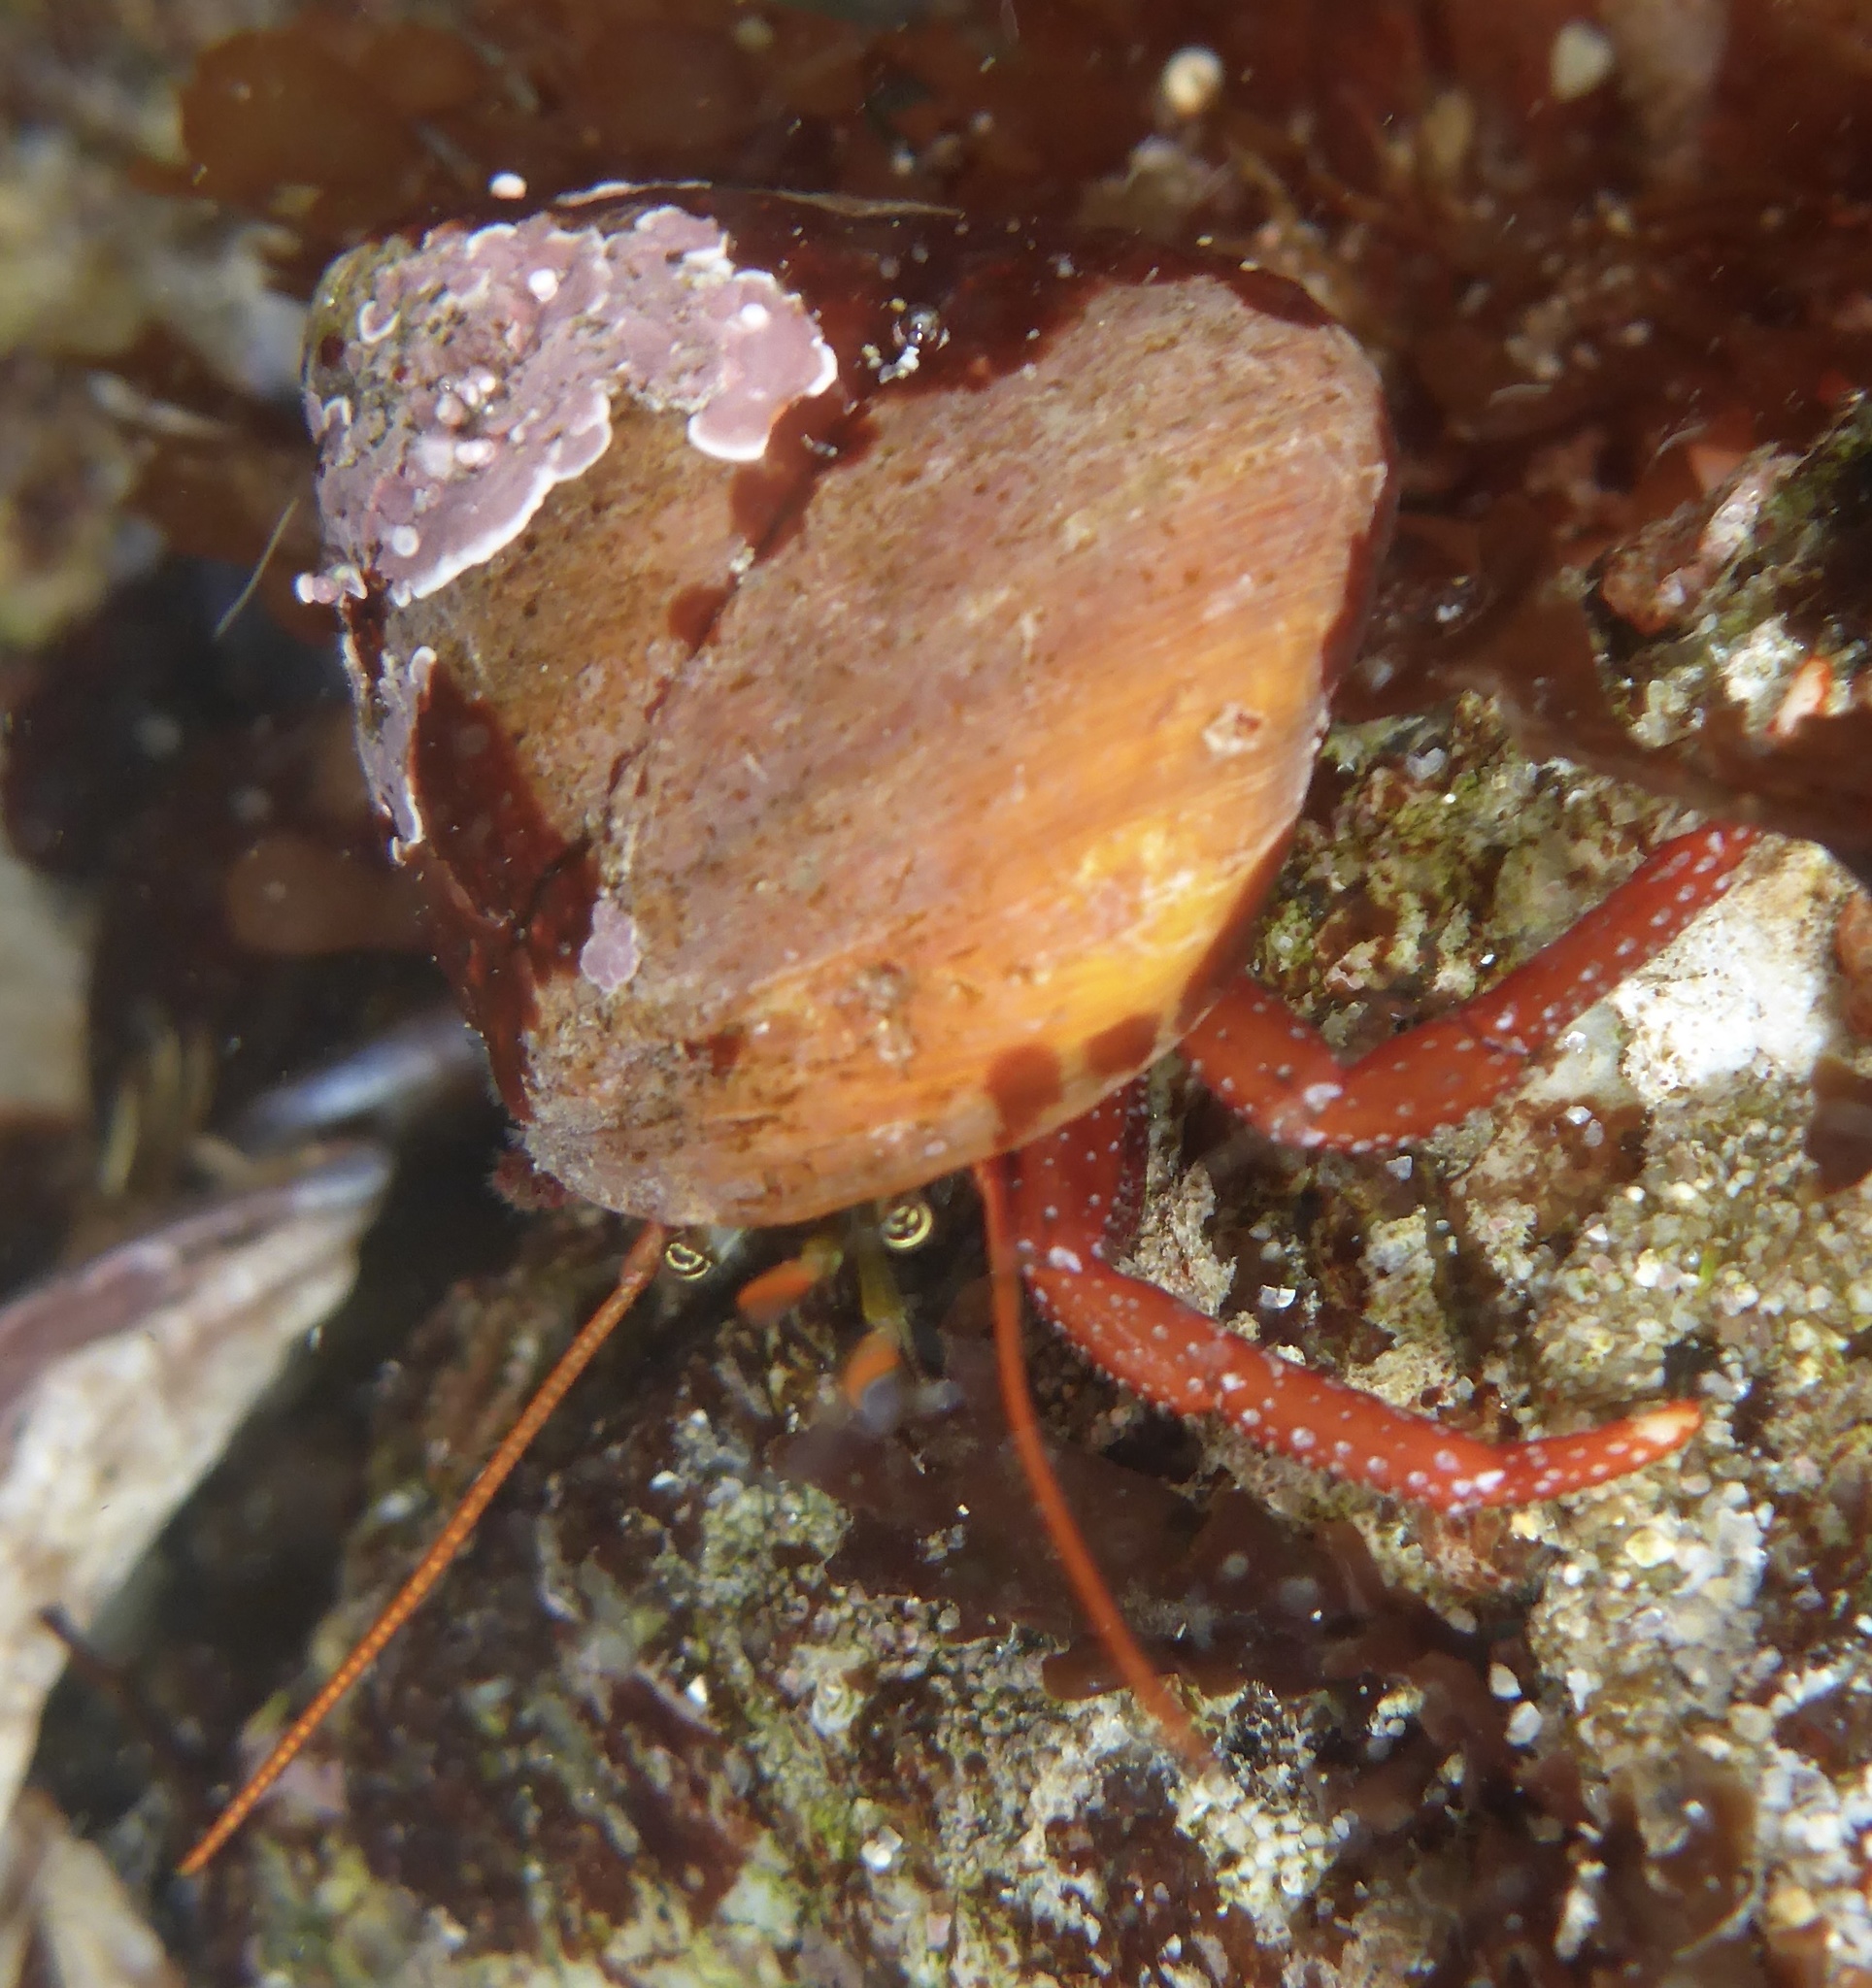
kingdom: Animalia
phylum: Arthropoda
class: Malacostraca
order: Decapoda
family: Paguridae
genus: Pagurus
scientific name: Pagurus hemphilli
